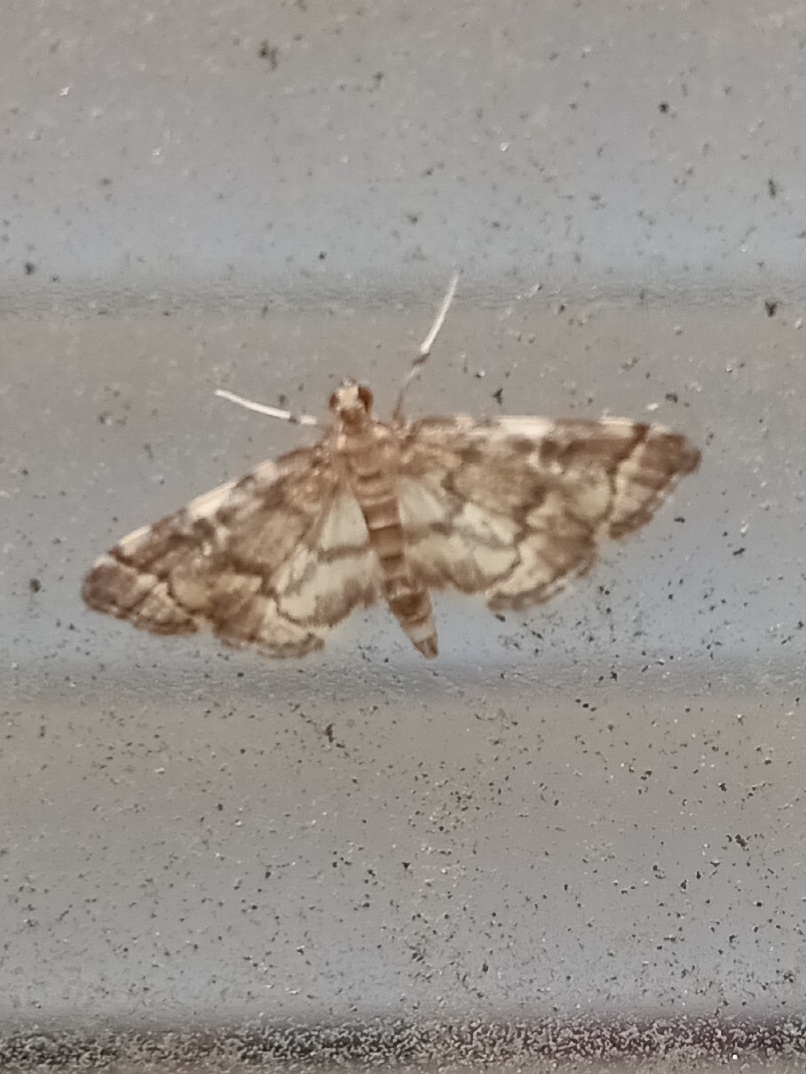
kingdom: Animalia
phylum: Arthropoda
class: Insecta
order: Lepidoptera
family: Crambidae
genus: Anageshna
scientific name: Anageshna primordialis
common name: Yellow-spotted webworm moth
